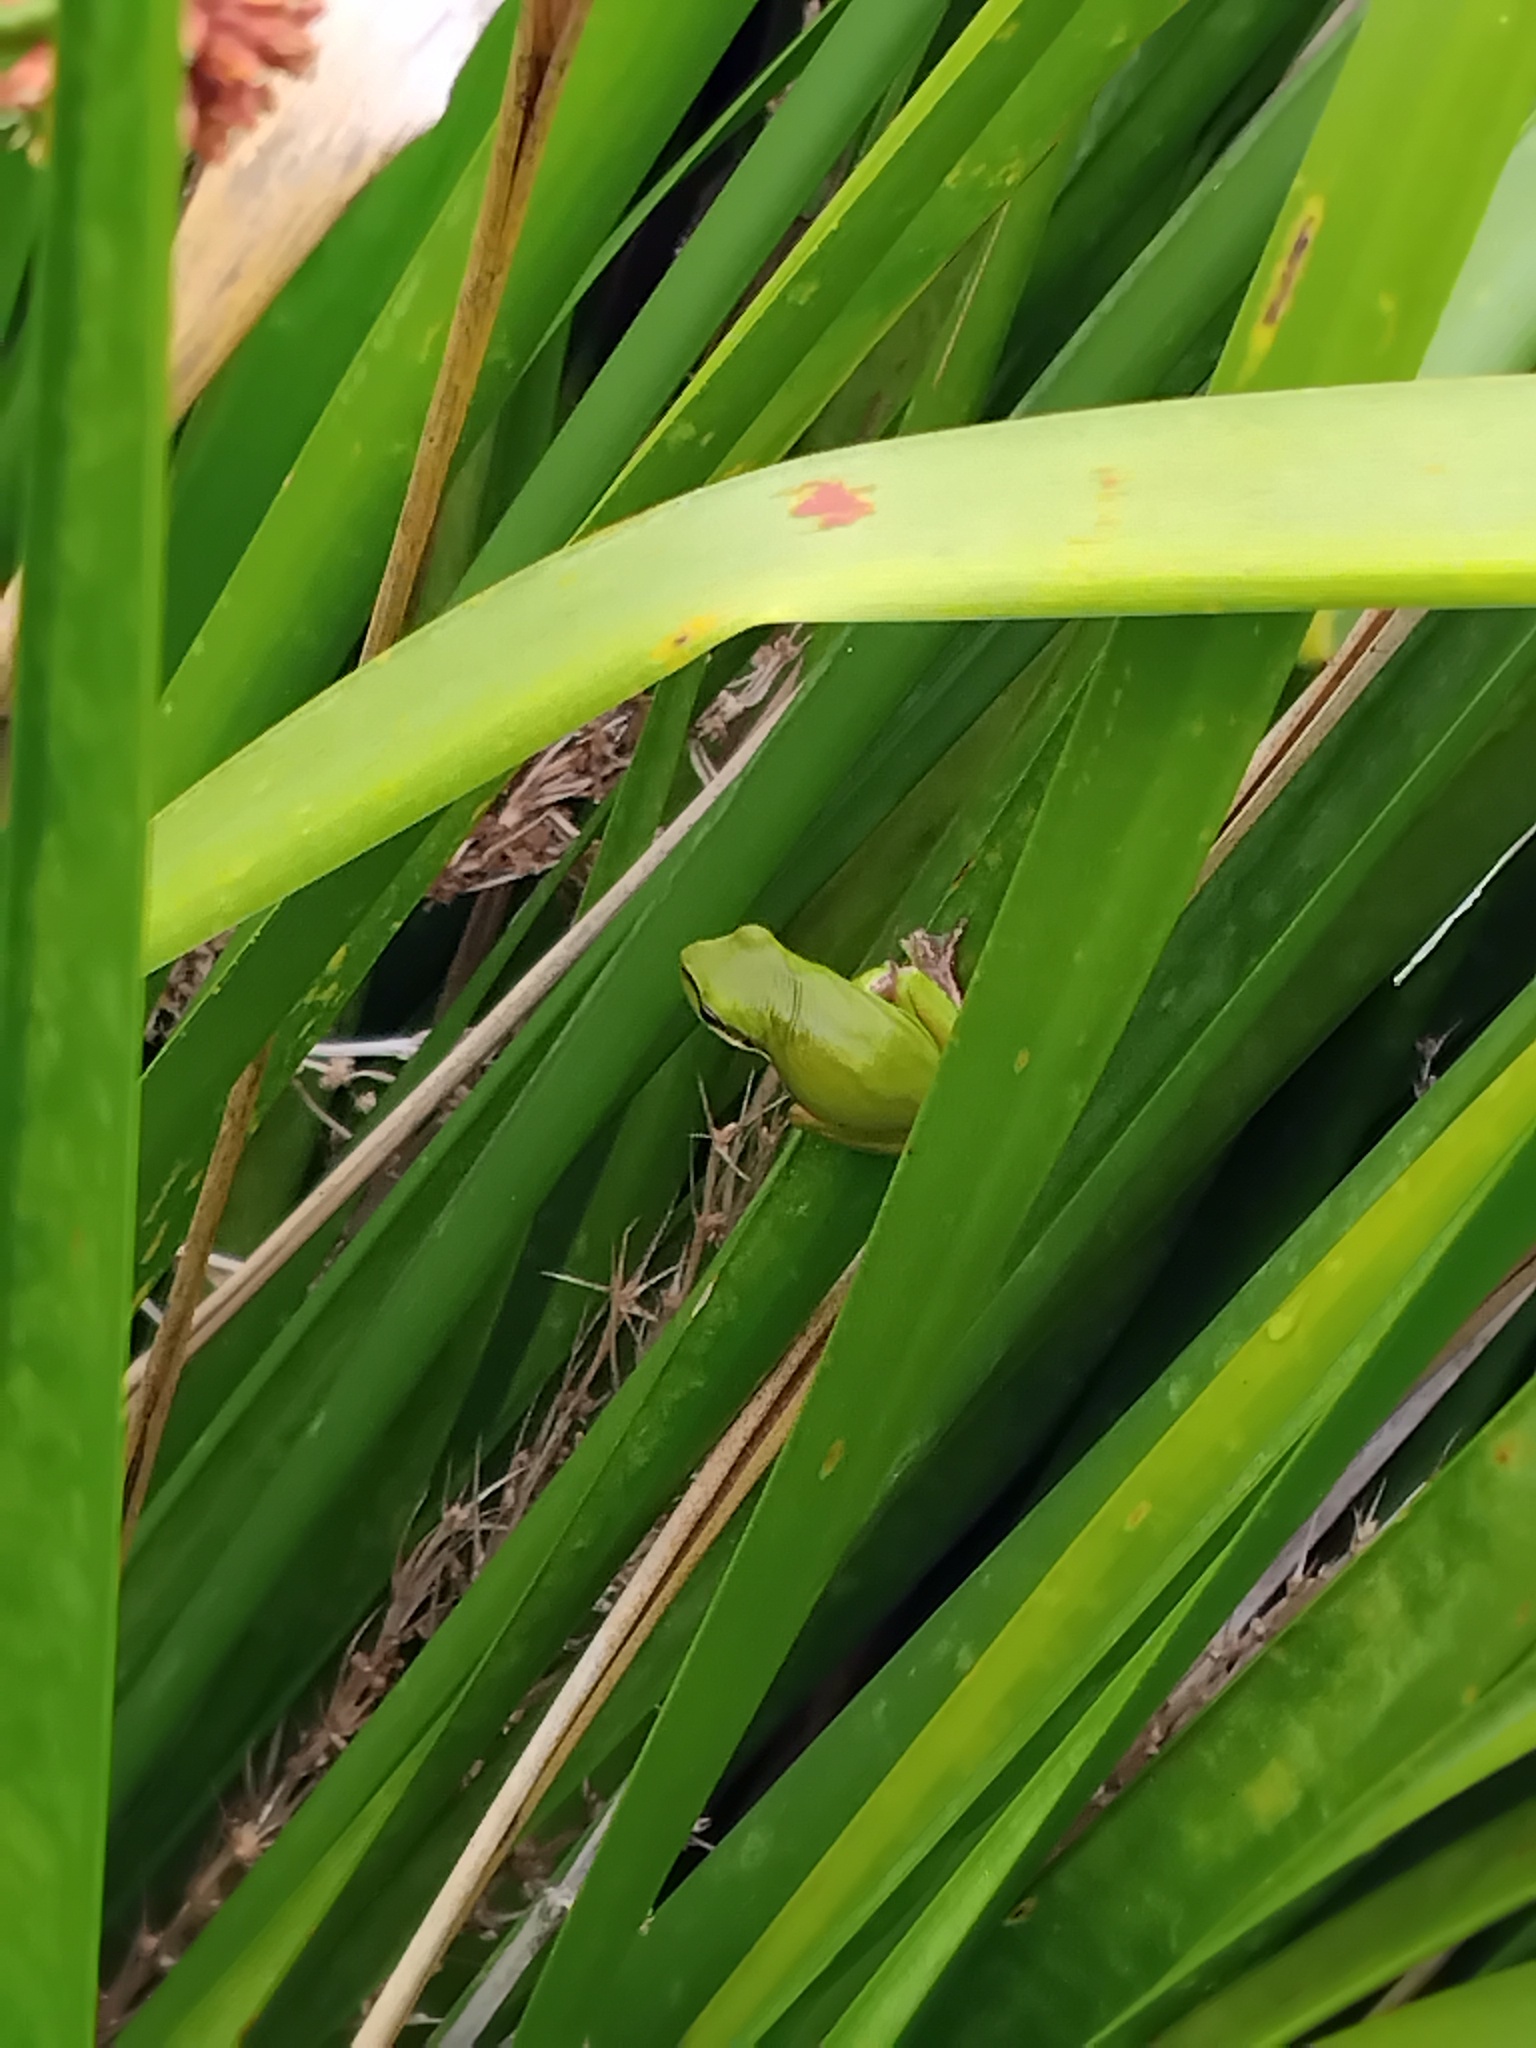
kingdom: Animalia
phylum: Chordata
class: Amphibia
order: Anura
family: Pelodryadidae
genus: Litoria
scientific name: Litoria fallax
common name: Eastern dwarf treefrog
